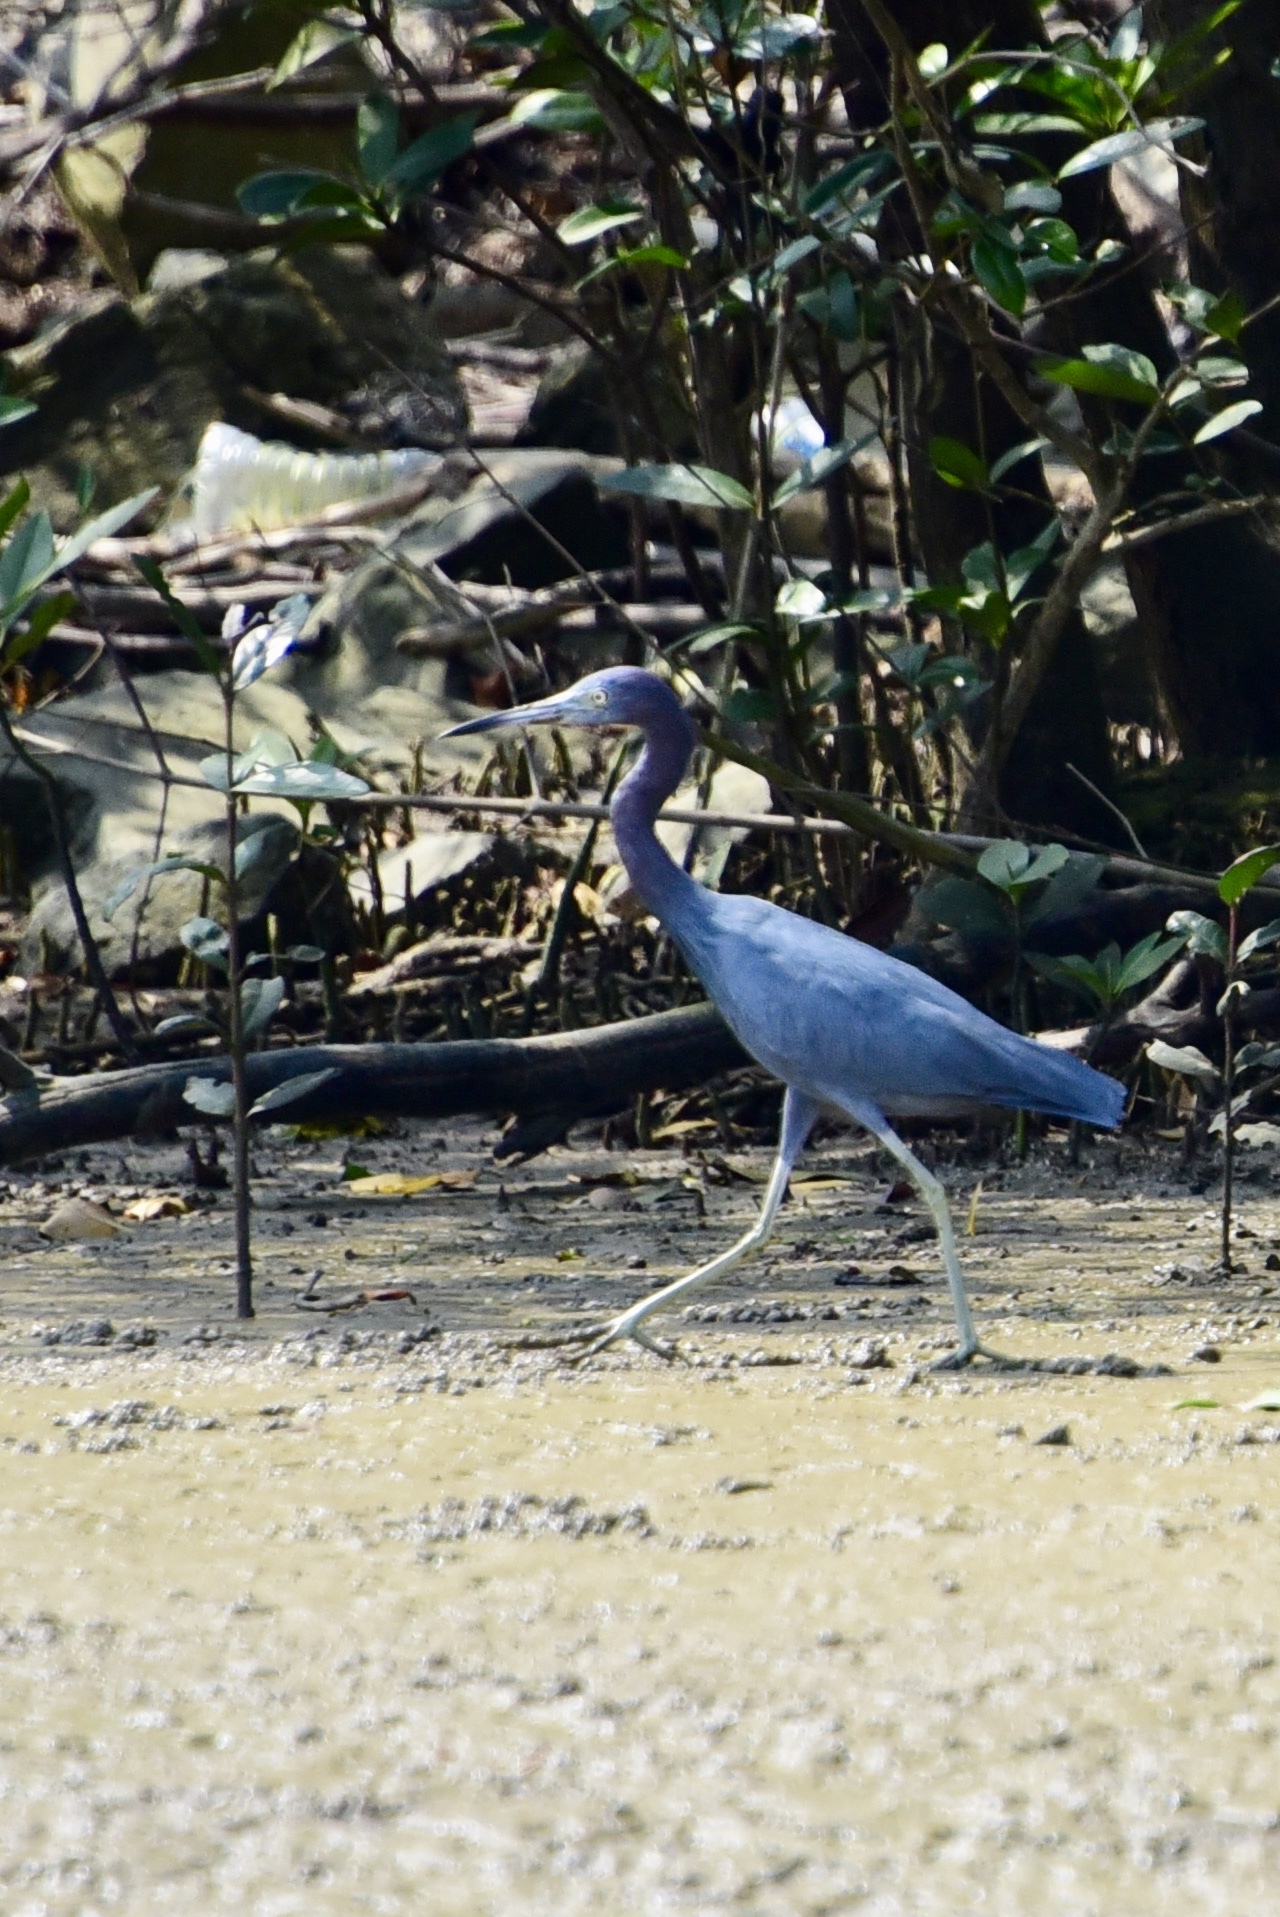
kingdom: Animalia
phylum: Chordata
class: Aves
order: Pelecaniformes
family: Ardeidae
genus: Egretta
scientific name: Egretta caerulea
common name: Little blue heron
